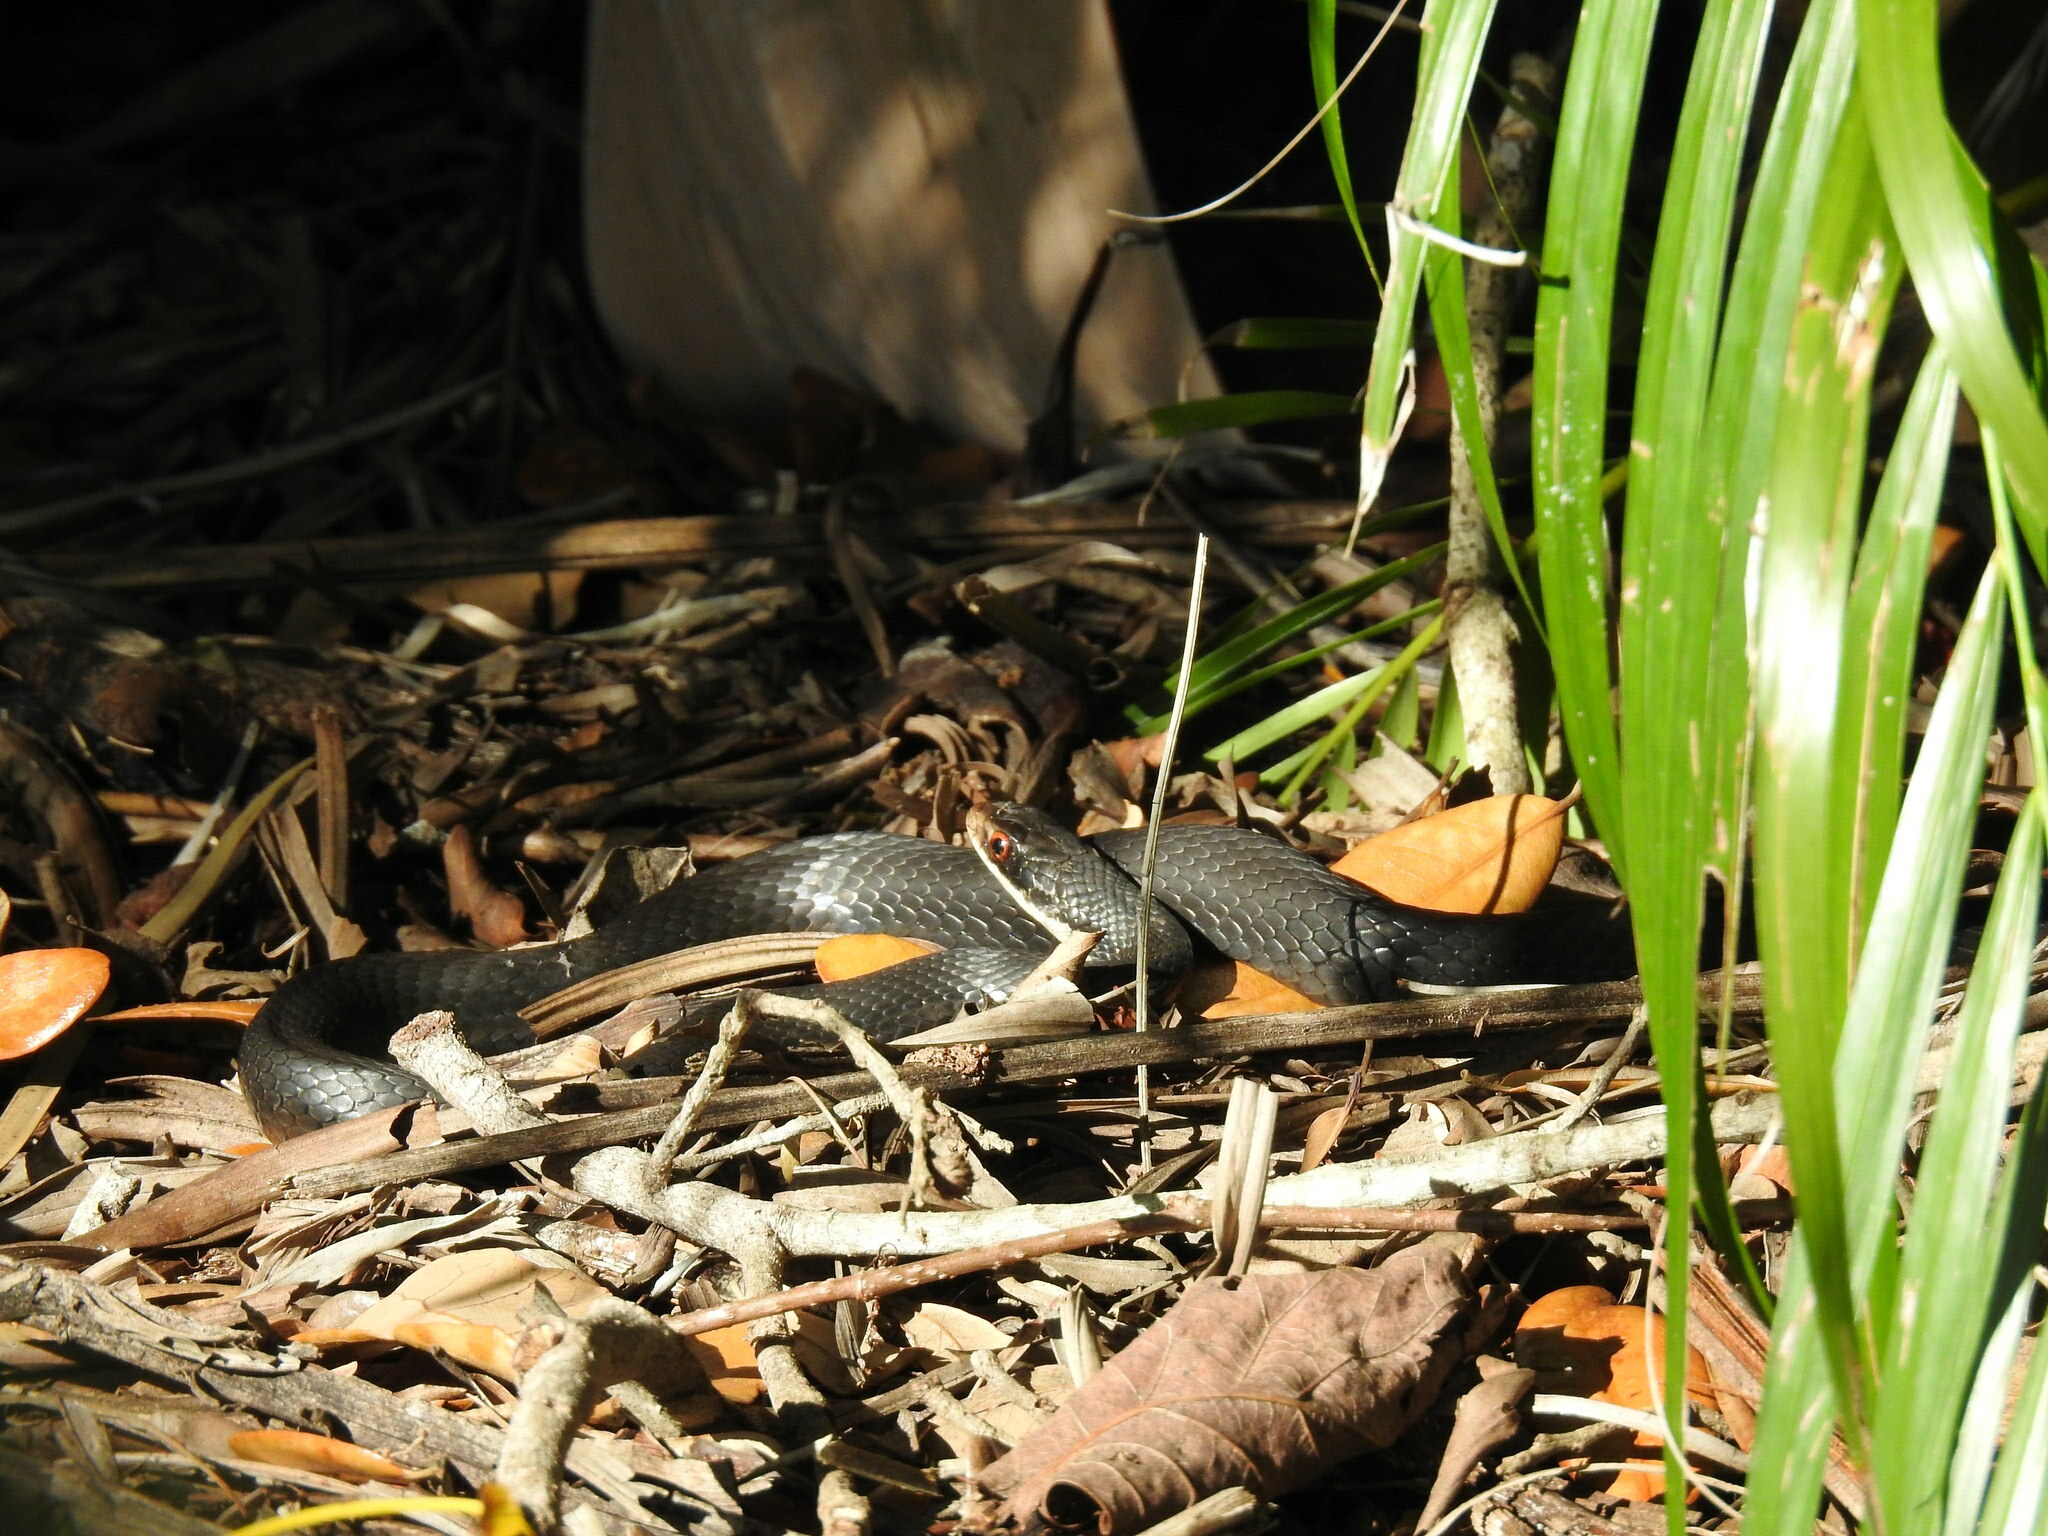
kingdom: Animalia
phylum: Chordata
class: Squamata
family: Colubridae
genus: Coluber
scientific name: Coluber constrictor
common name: Eastern racer
